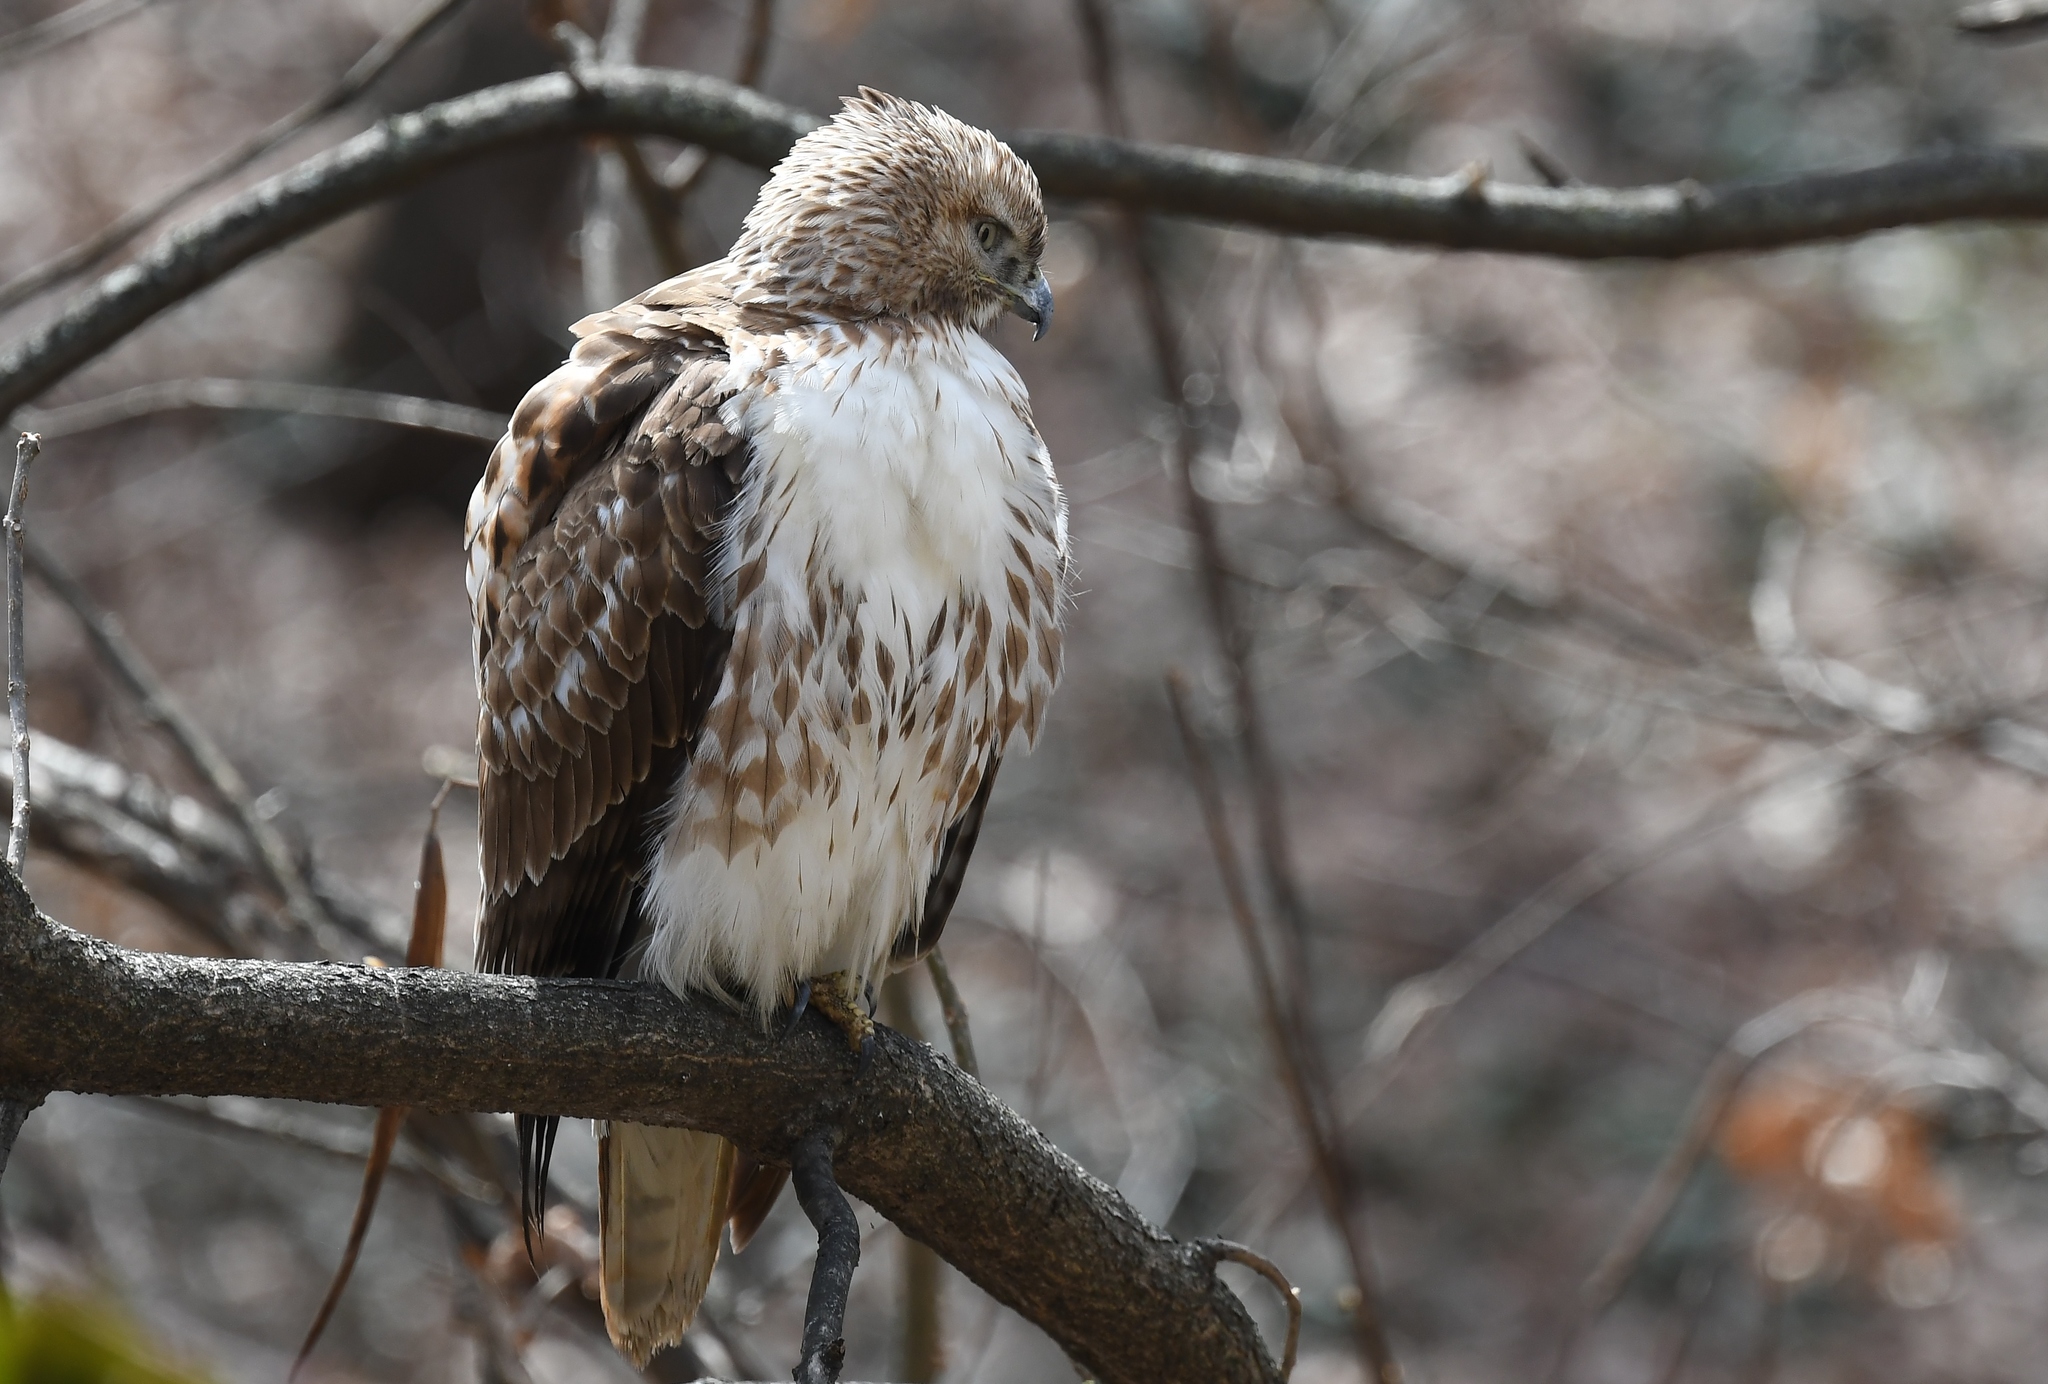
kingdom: Animalia
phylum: Chordata
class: Aves
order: Accipitriformes
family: Accipitridae
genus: Buteo
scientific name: Buteo jamaicensis
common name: Red-tailed hawk
